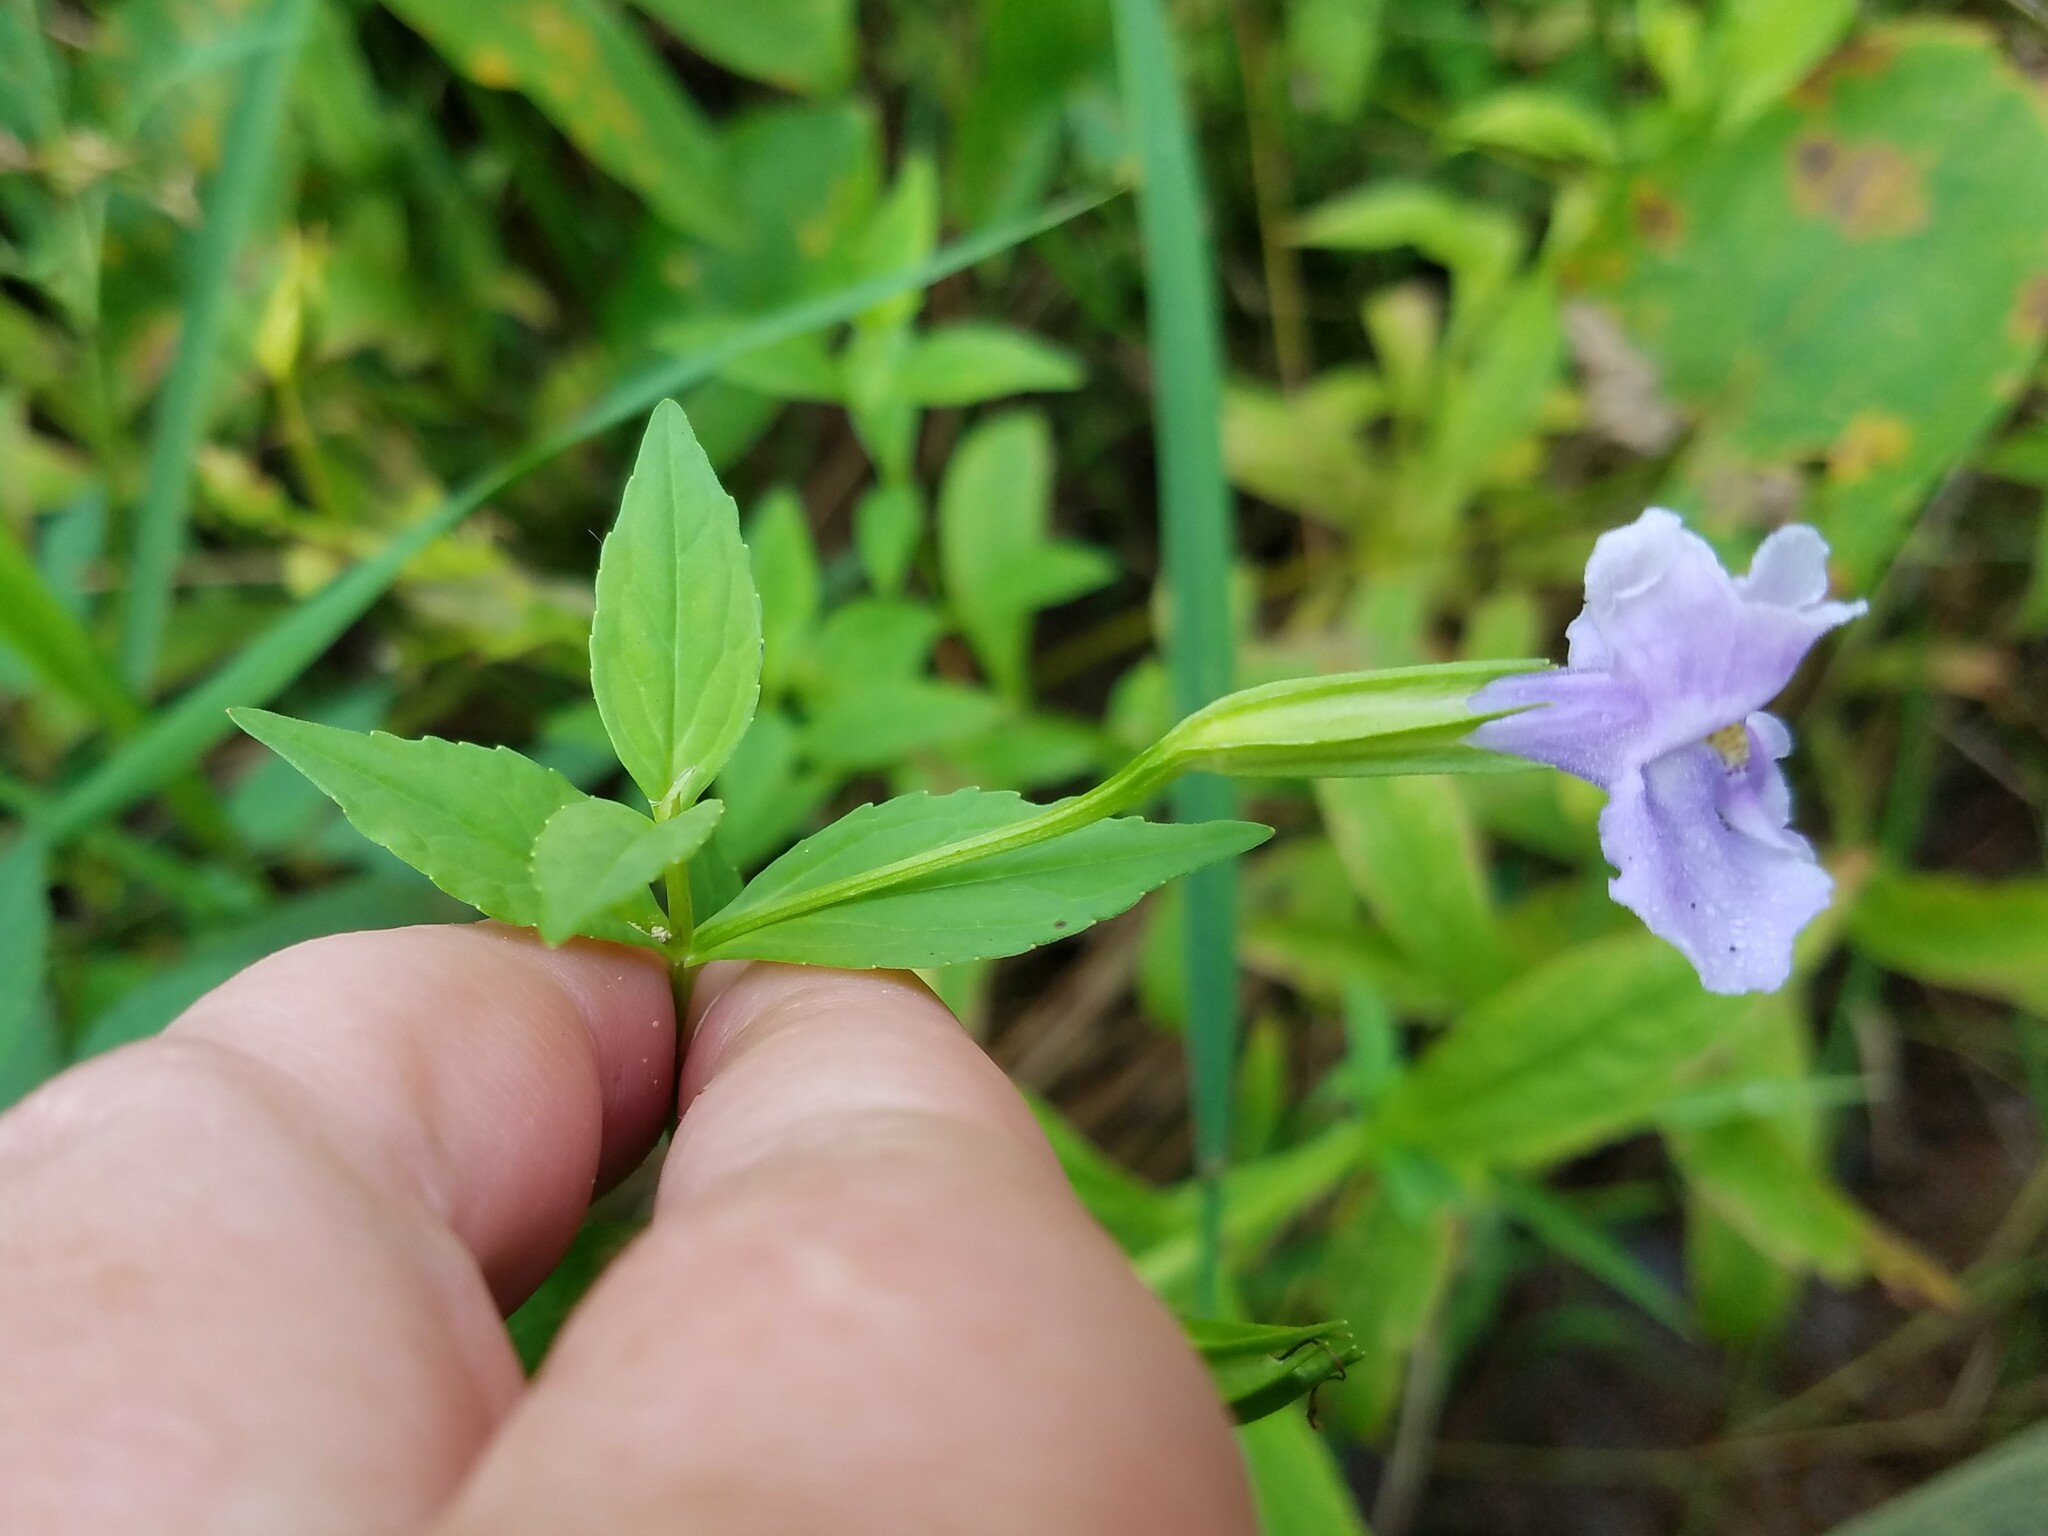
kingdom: Plantae
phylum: Tracheophyta
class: Magnoliopsida
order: Lamiales
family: Phrymaceae
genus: Mimulus
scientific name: Mimulus ringens
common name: Allegheny monkeyflower
